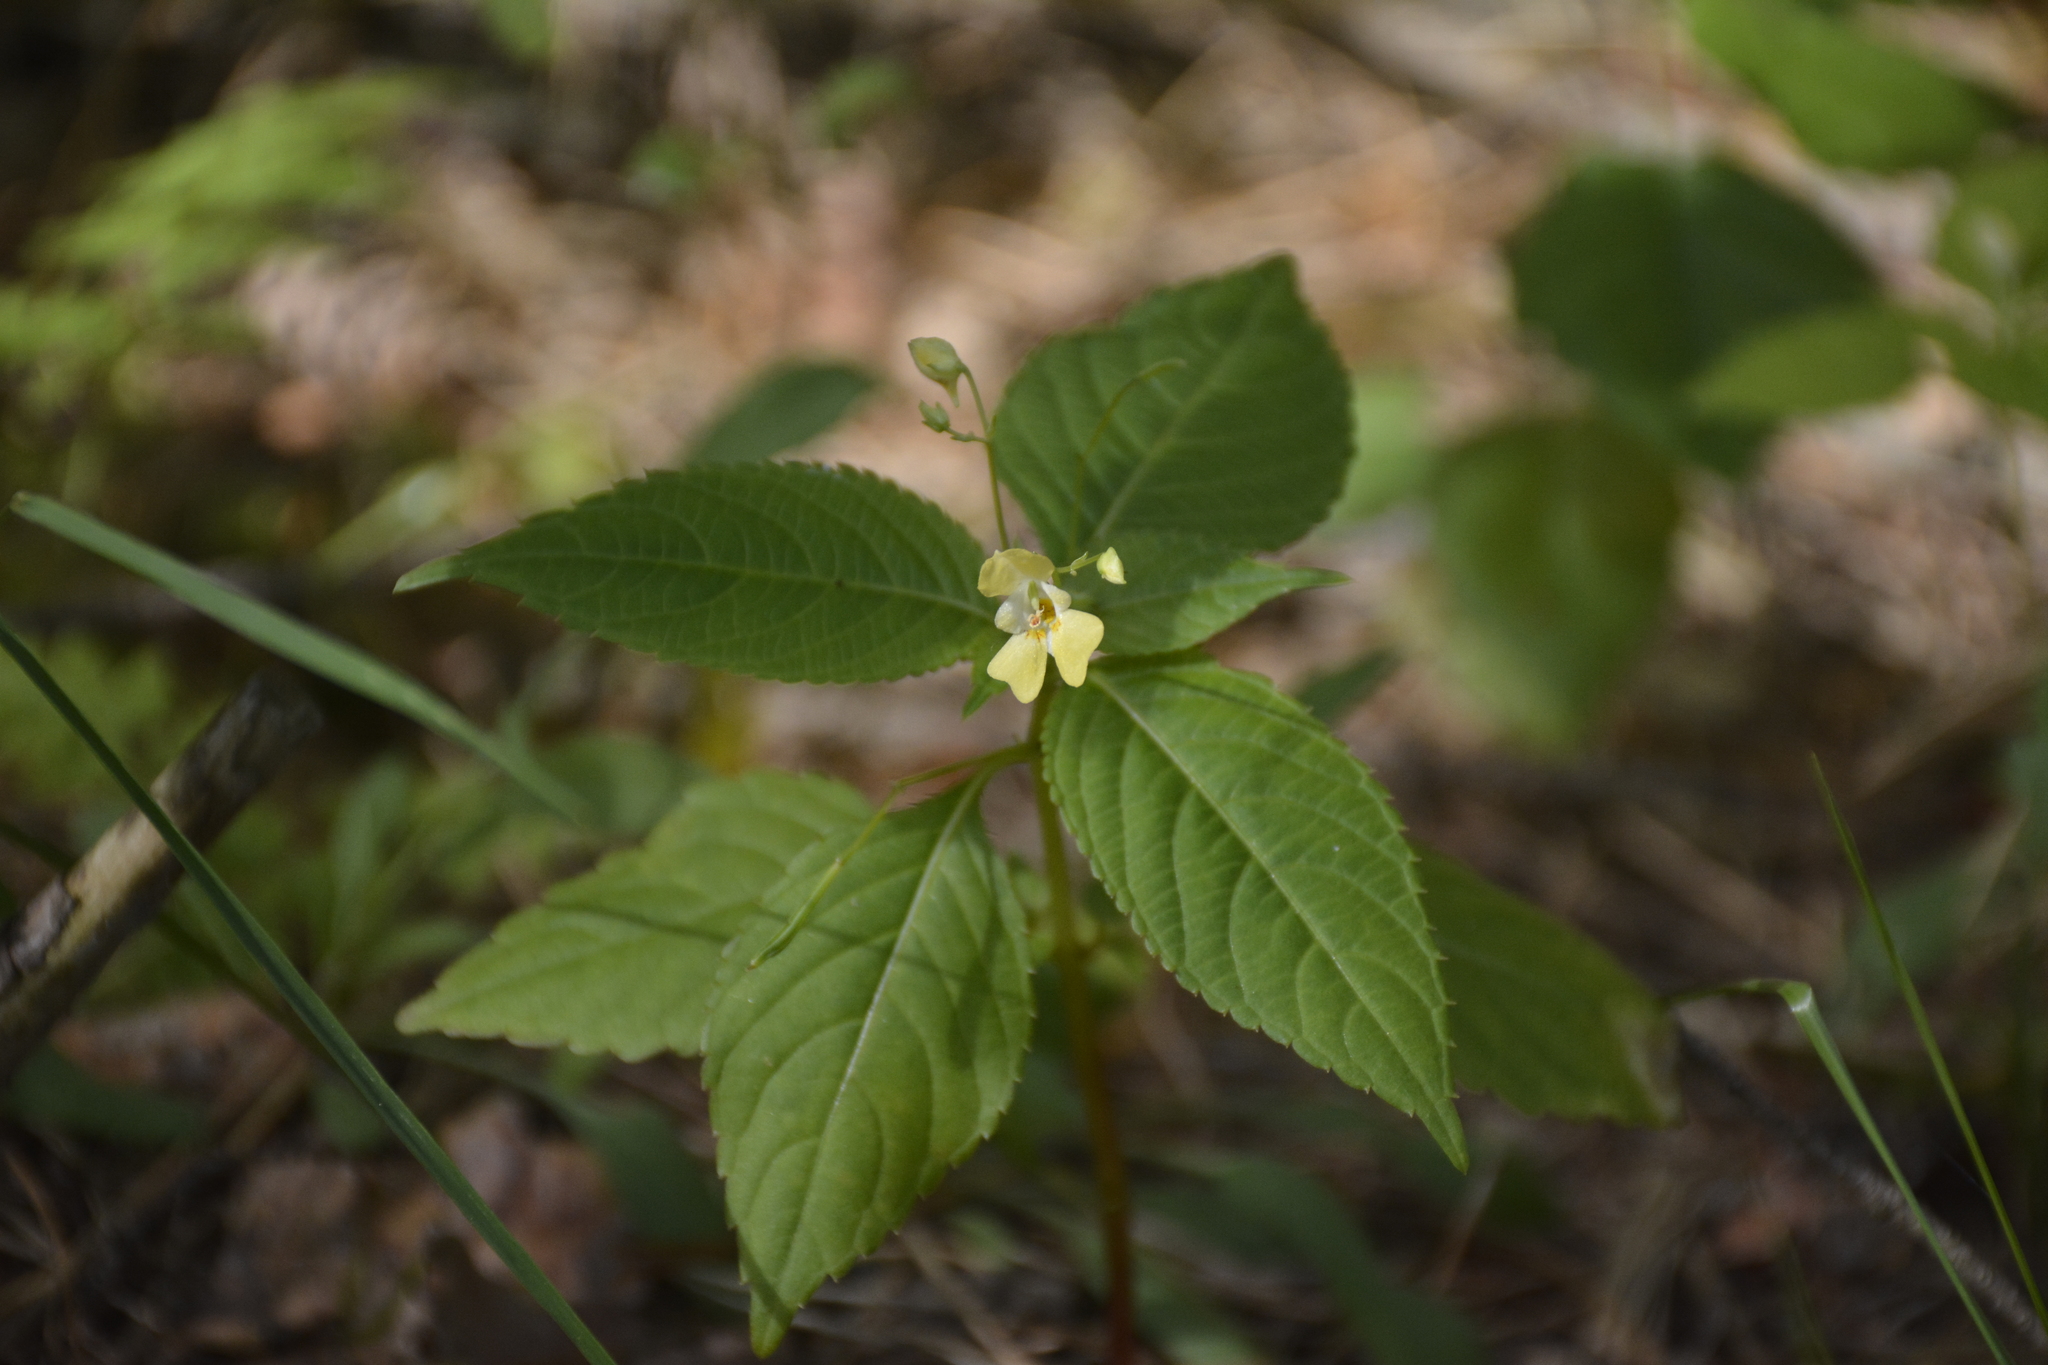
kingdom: Plantae
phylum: Tracheophyta
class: Magnoliopsida
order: Ericales
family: Balsaminaceae
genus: Impatiens
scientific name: Impatiens parviflora
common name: Small balsam
